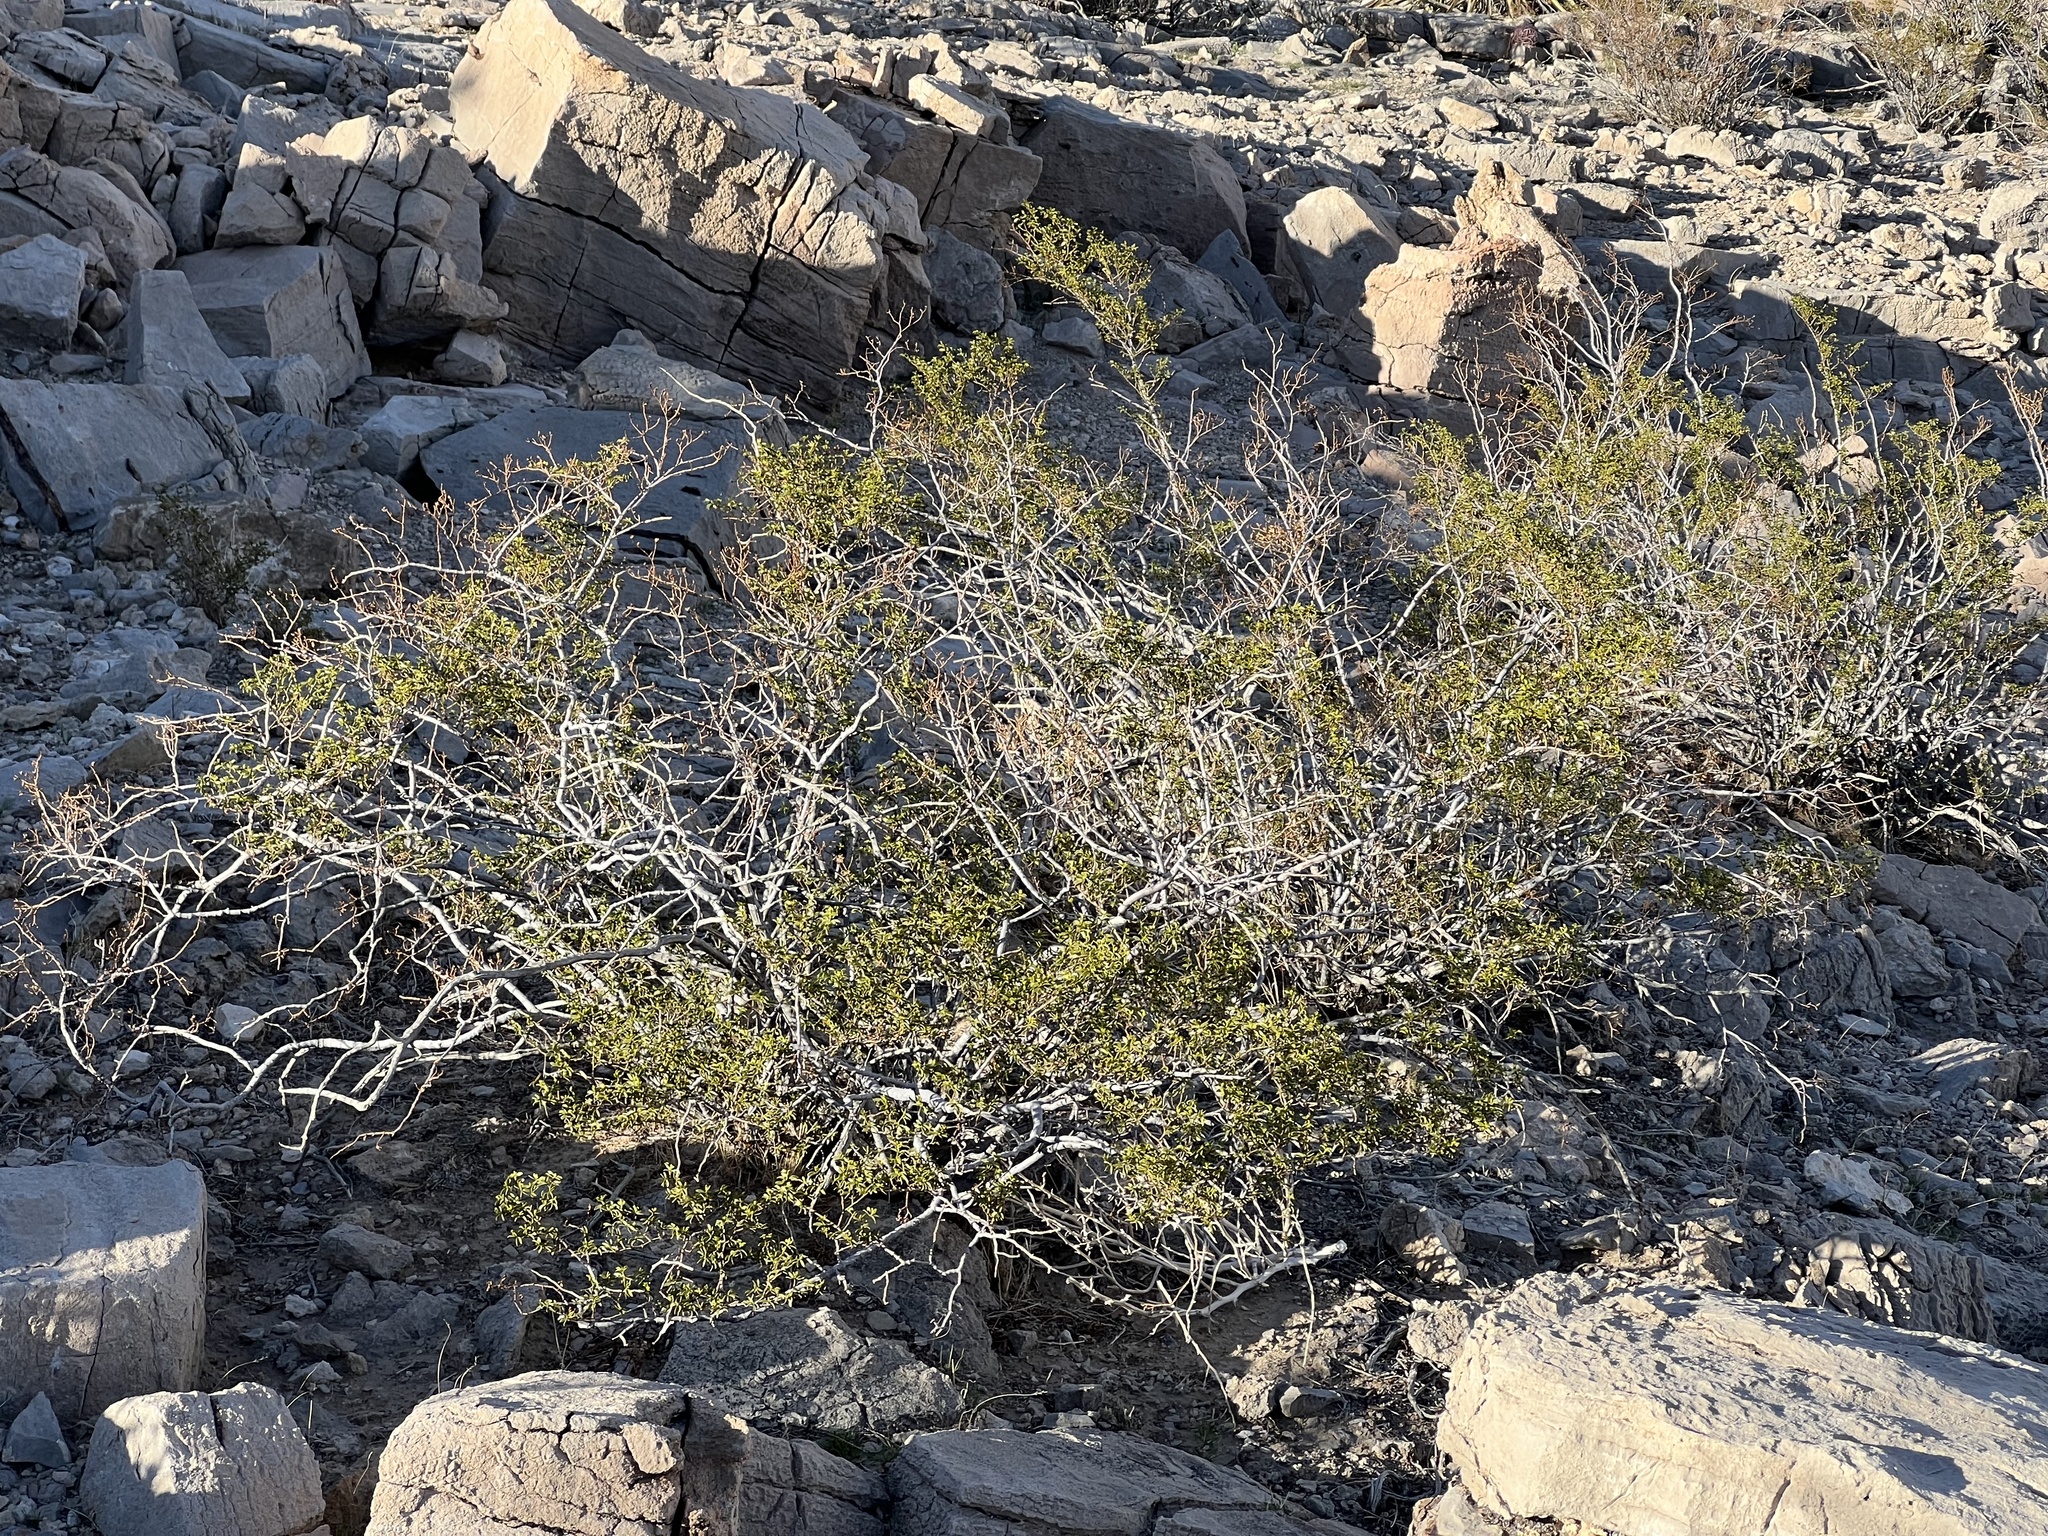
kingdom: Plantae
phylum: Tracheophyta
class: Magnoliopsida
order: Zygophyllales
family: Zygophyllaceae
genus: Larrea
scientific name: Larrea tridentata
